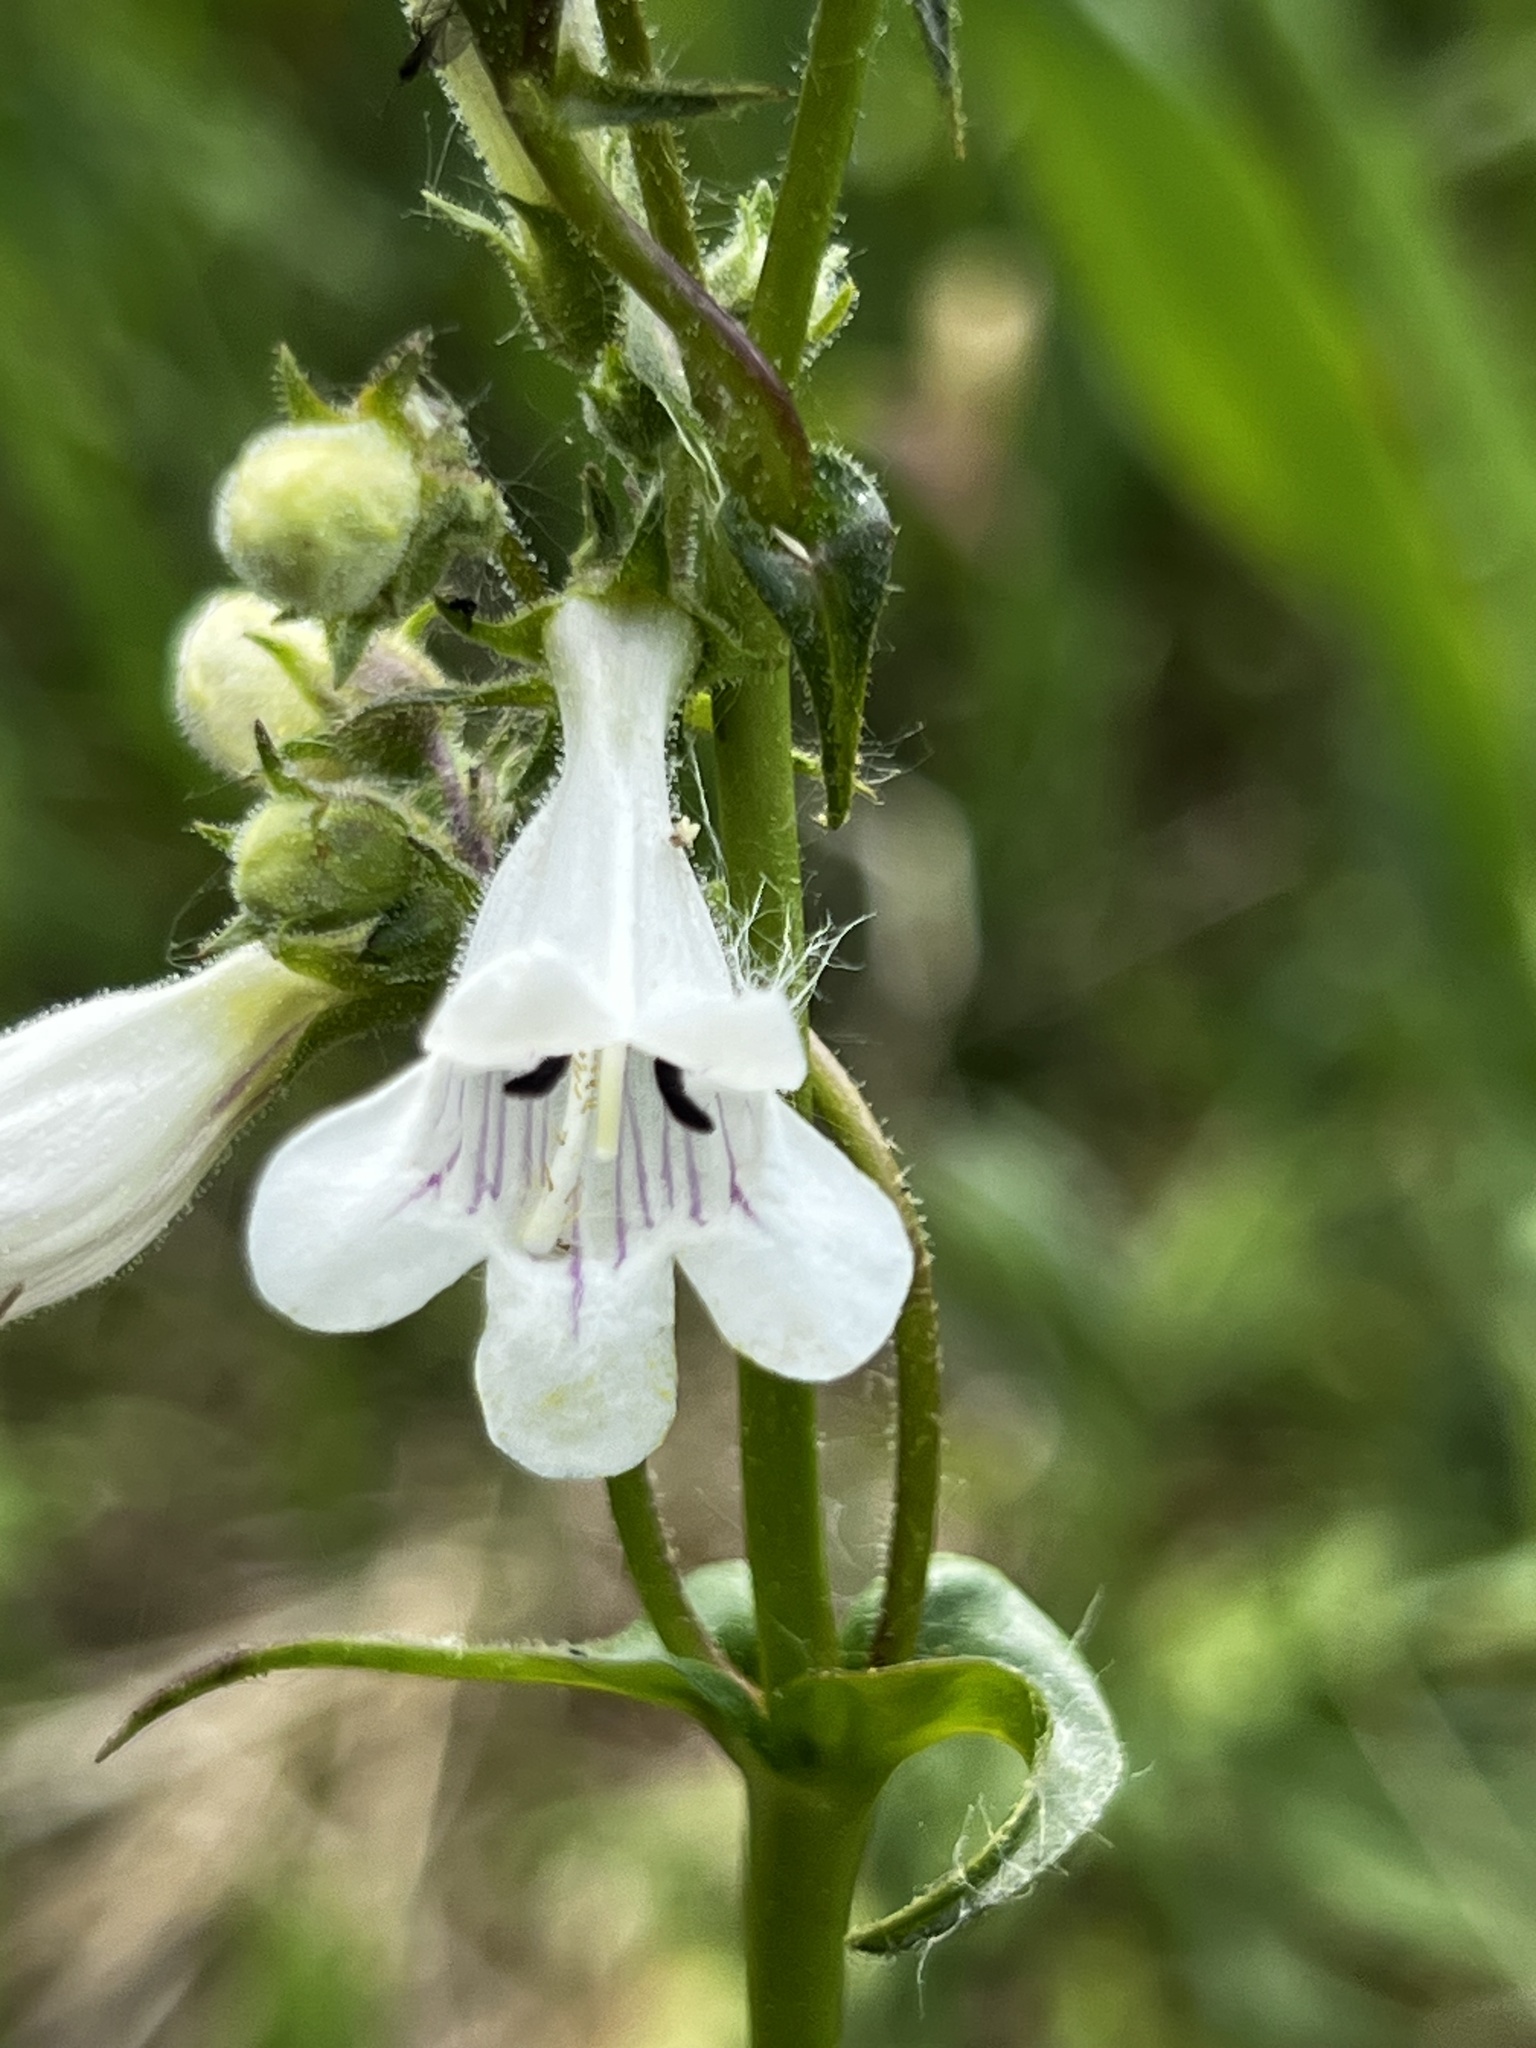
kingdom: Plantae
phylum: Tracheophyta
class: Magnoliopsida
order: Lamiales
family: Plantaginaceae
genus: Penstemon
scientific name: Penstemon digitalis
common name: Foxglove beardtongue
